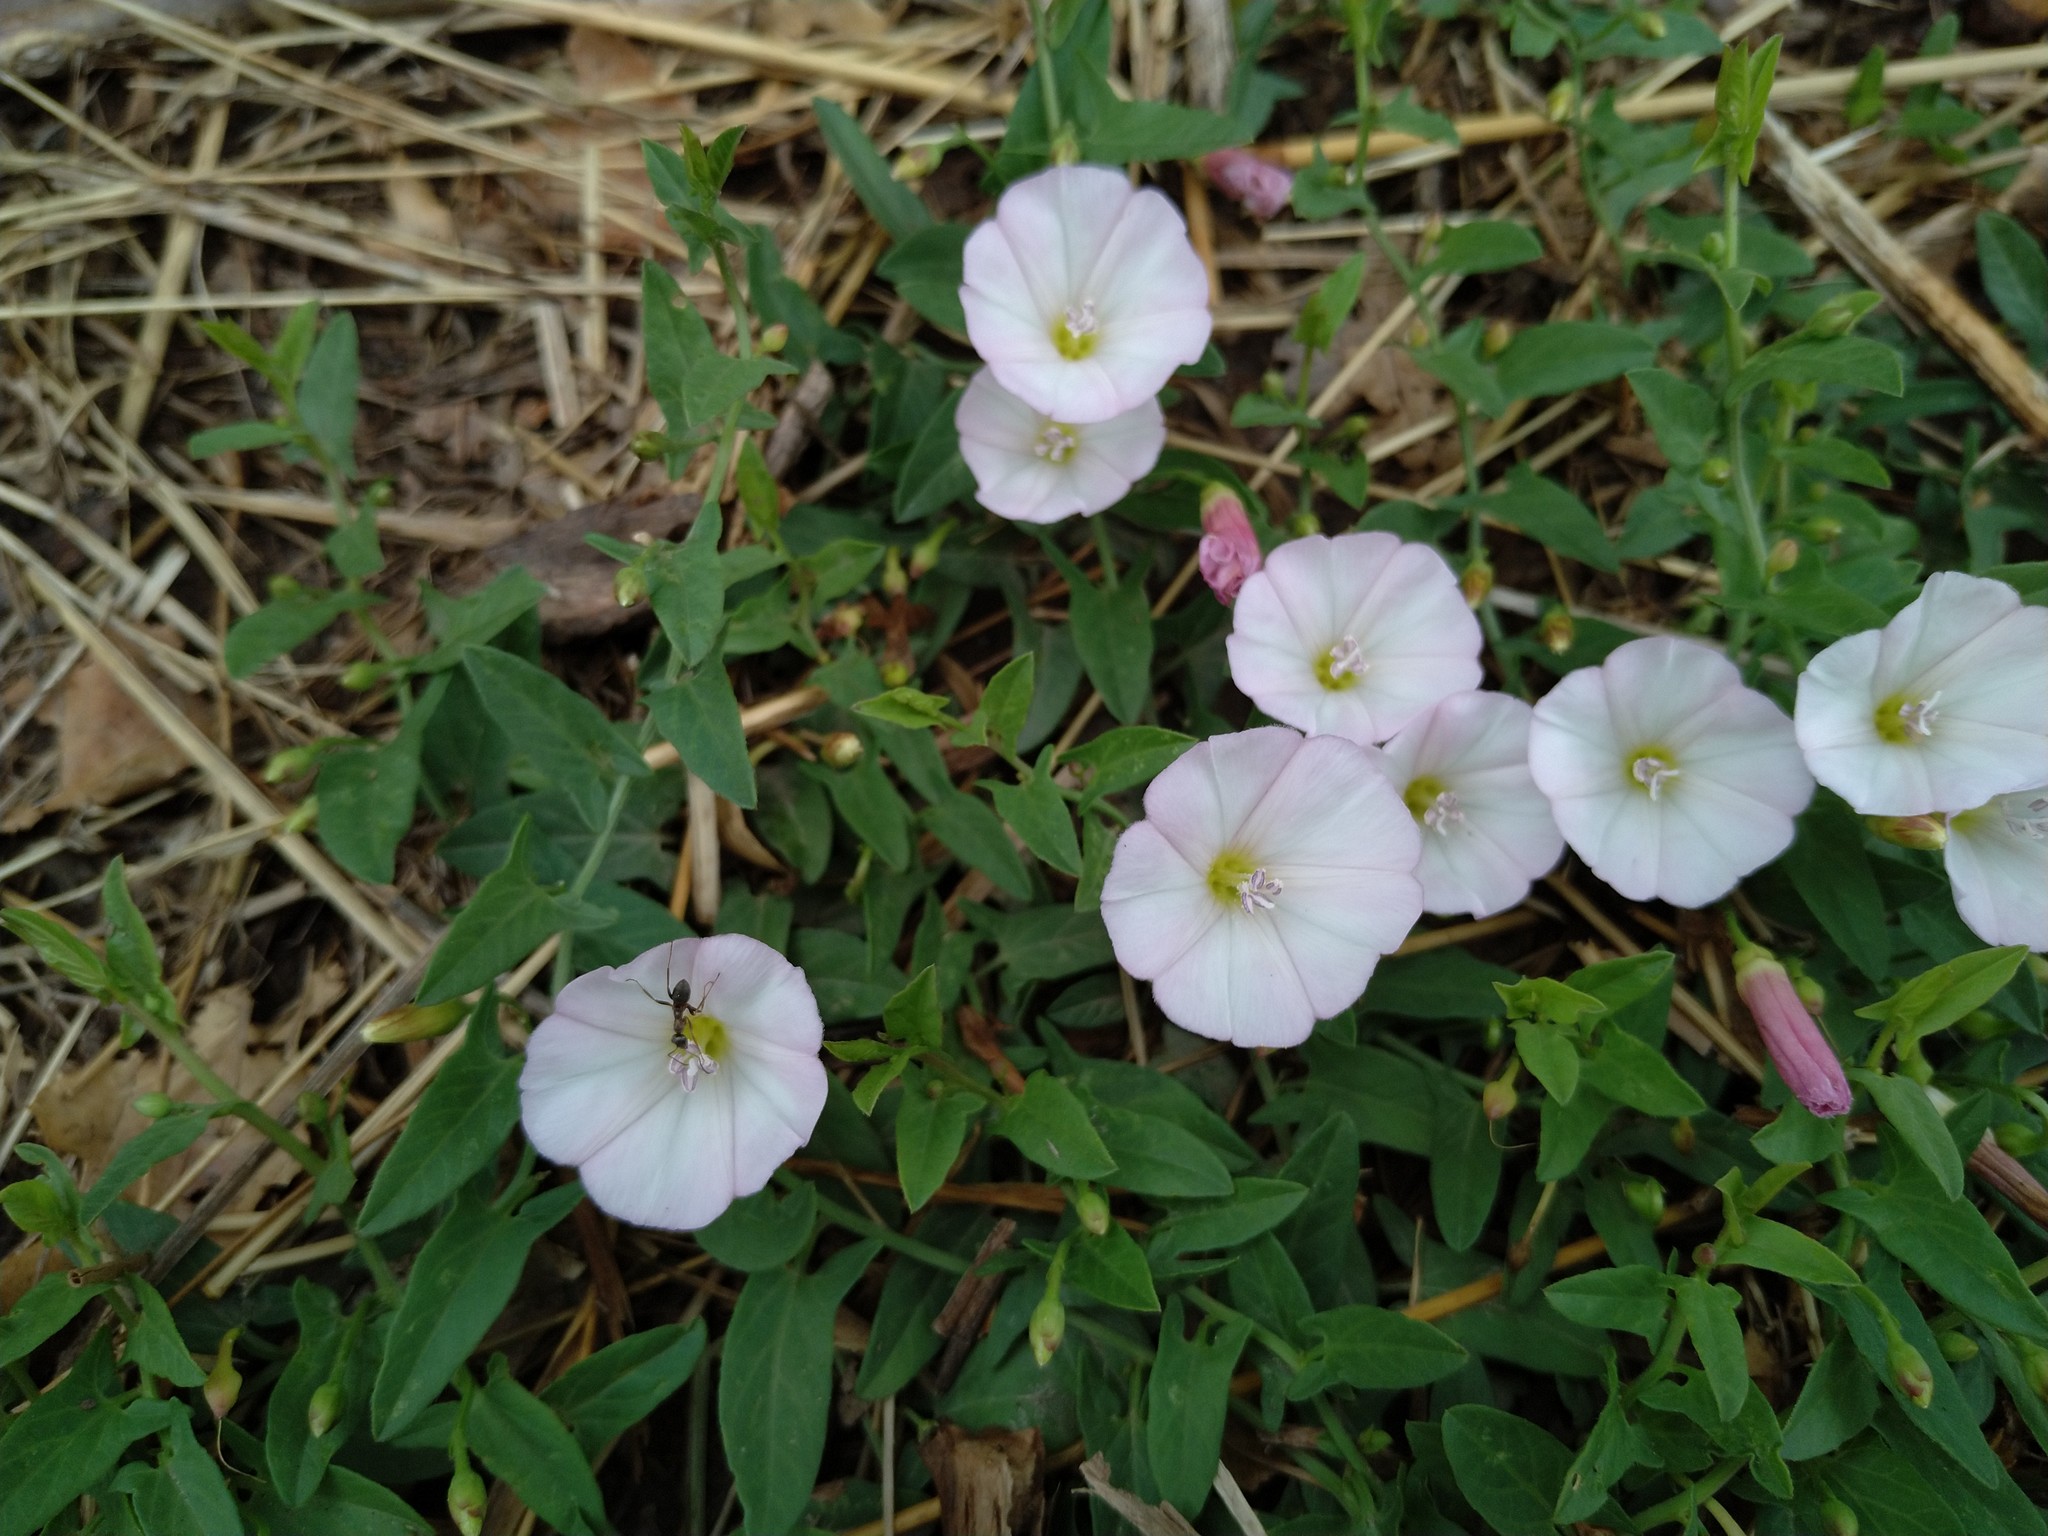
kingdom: Plantae
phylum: Tracheophyta
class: Magnoliopsida
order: Solanales
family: Convolvulaceae
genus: Convolvulus
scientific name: Convolvulus arvensis
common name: Field bindweed
